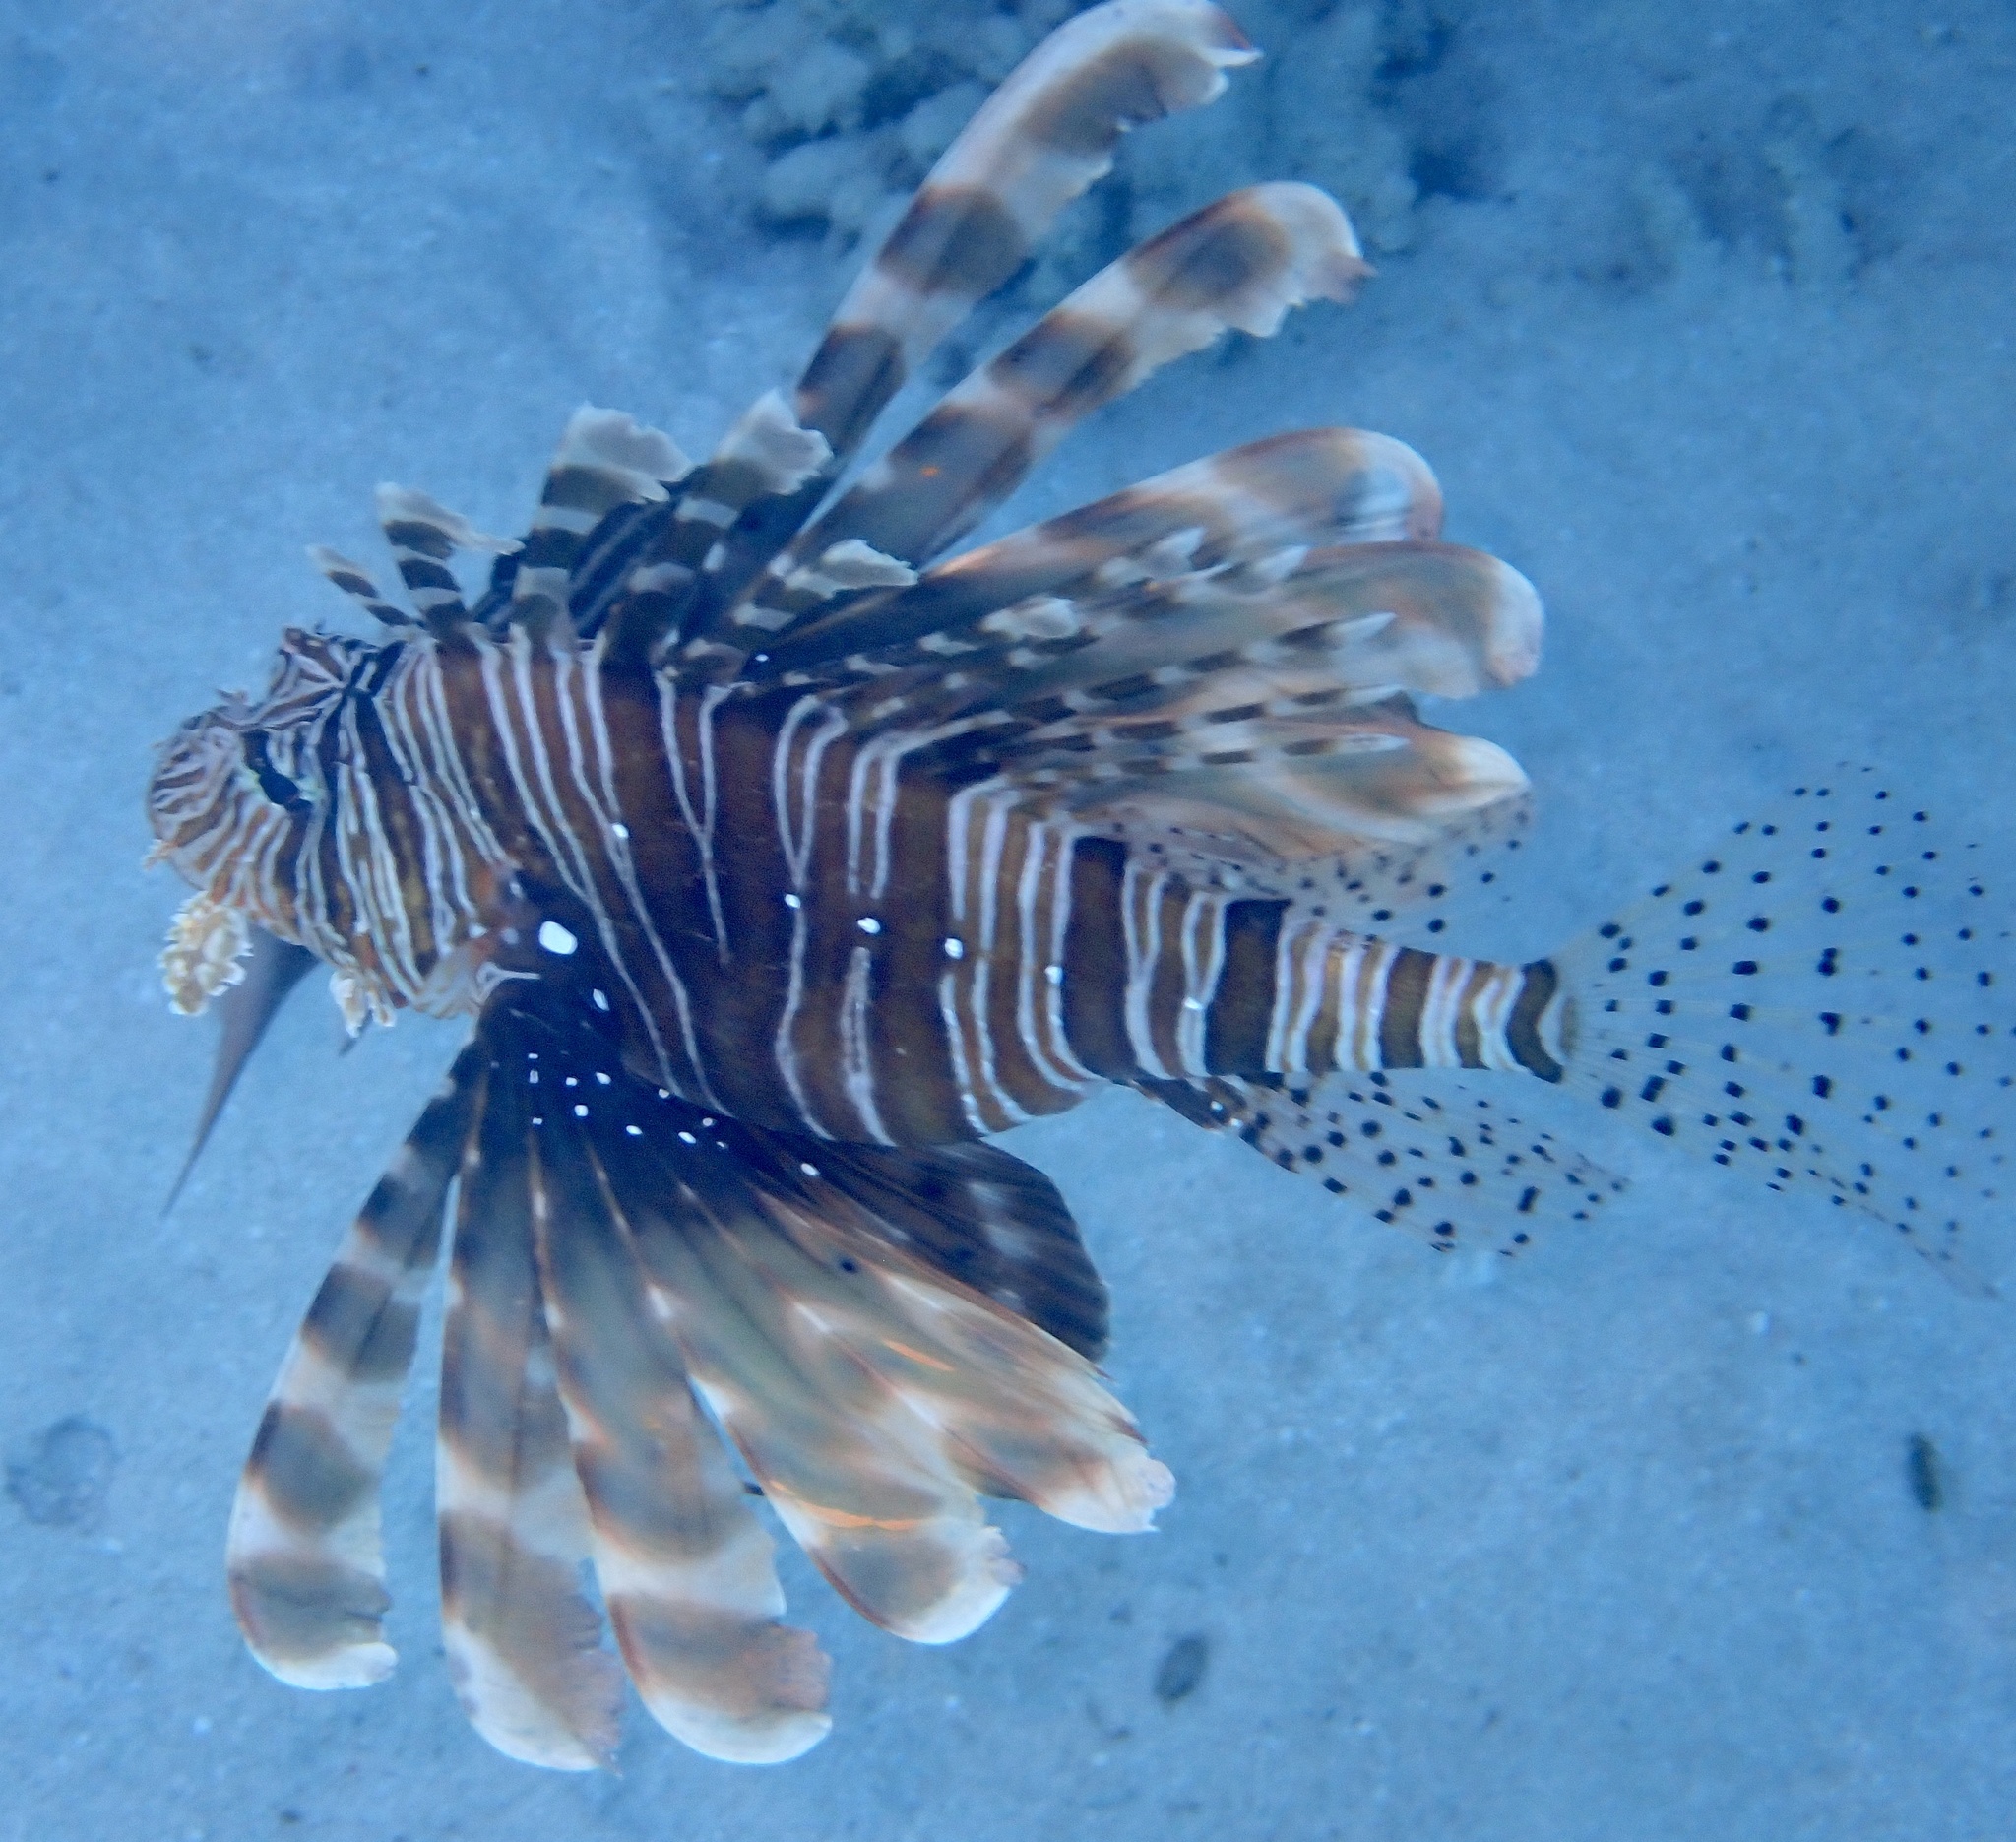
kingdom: Animalia
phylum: Chordata
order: Scorpaeniformes
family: Scorpaenidae
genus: Pterois
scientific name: Pterois miles
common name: Devil firefish
